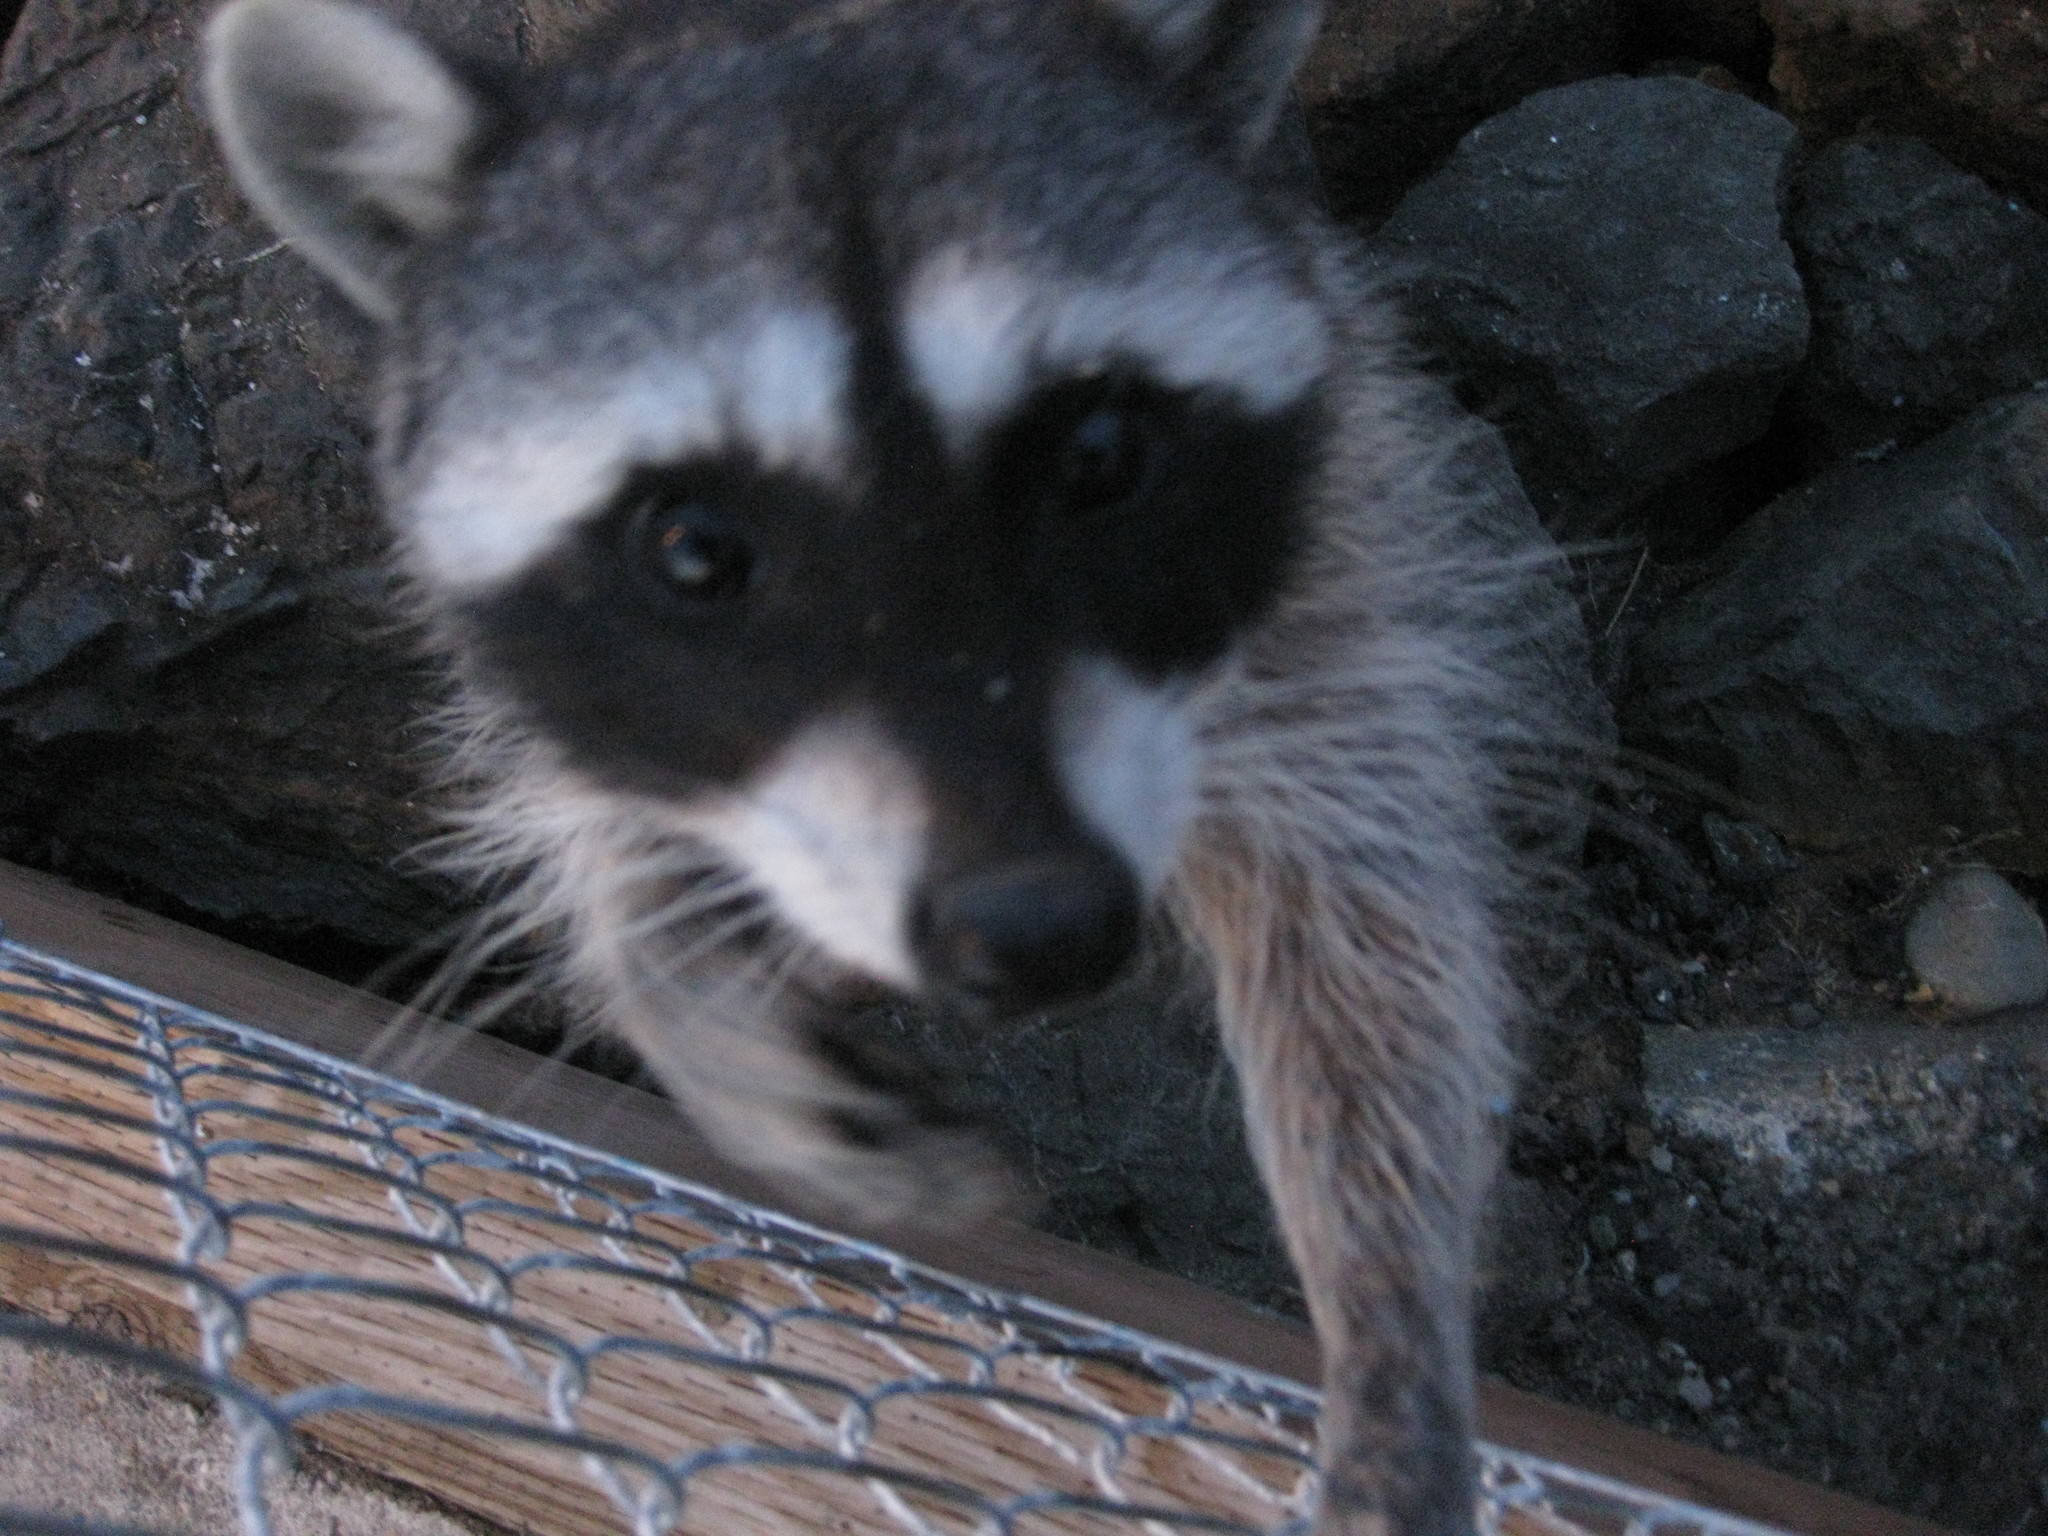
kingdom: Animalia
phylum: Chordata
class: Mammalia
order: Carnivora
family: Procyonidae
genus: Procyon
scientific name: Procyon lotor
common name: Raccoon
